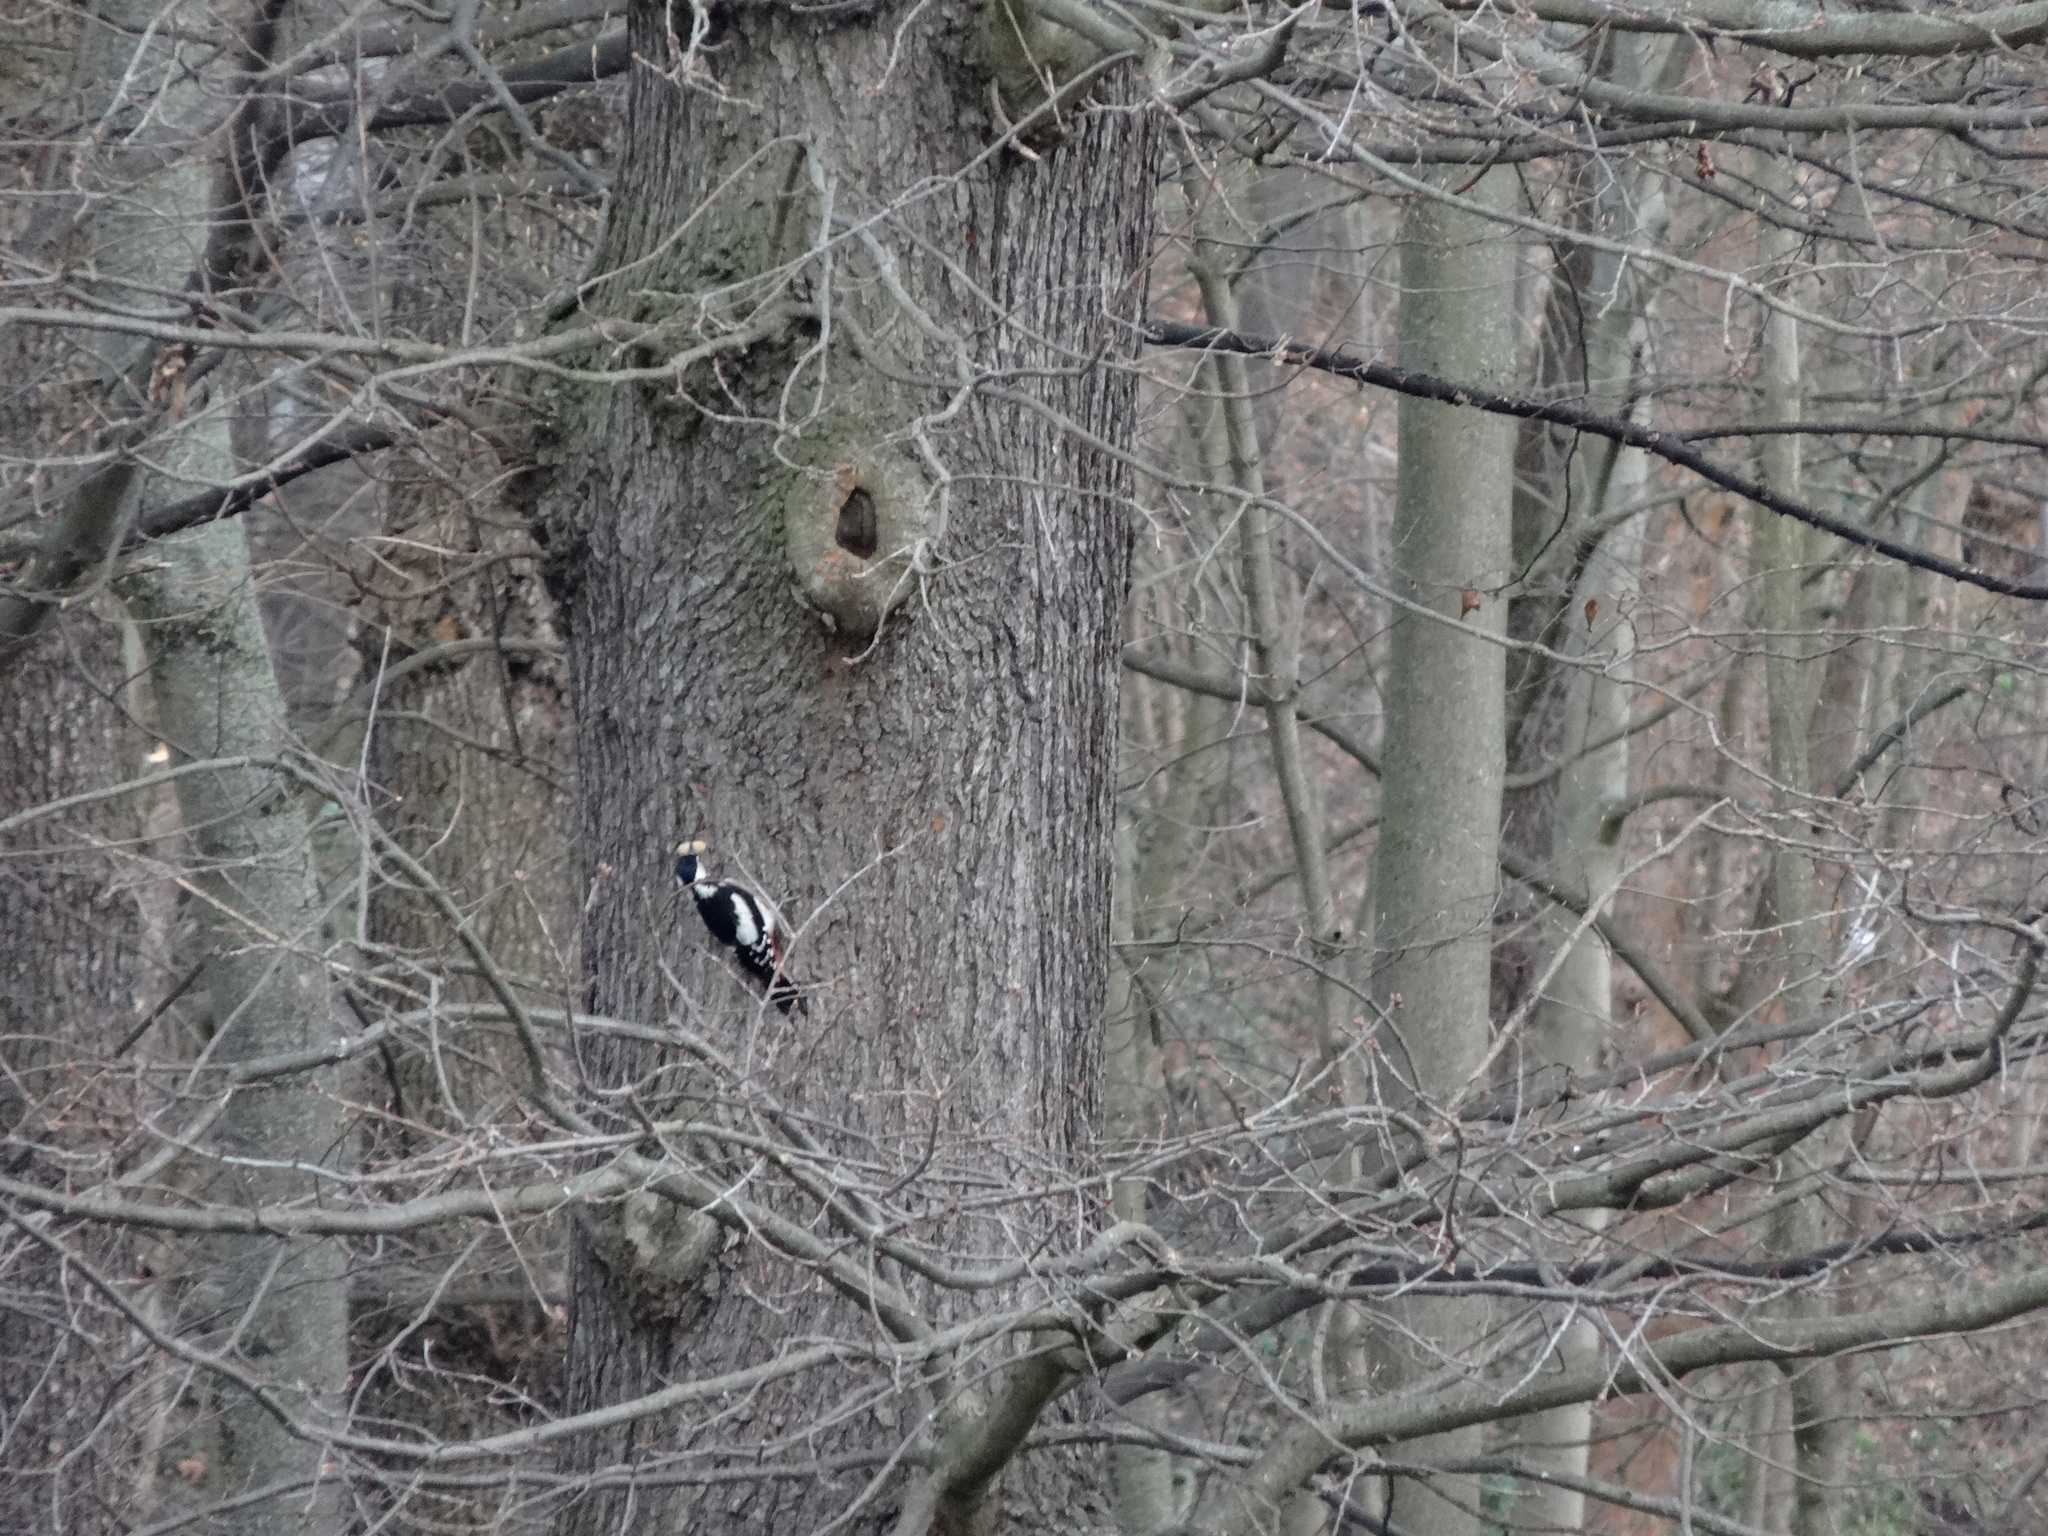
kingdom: Animalia
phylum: Chordata
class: Aves
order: Piciformes
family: Picidae
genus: Dendrocopos
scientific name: Dendrocopos major
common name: Great spotted woodpecker
